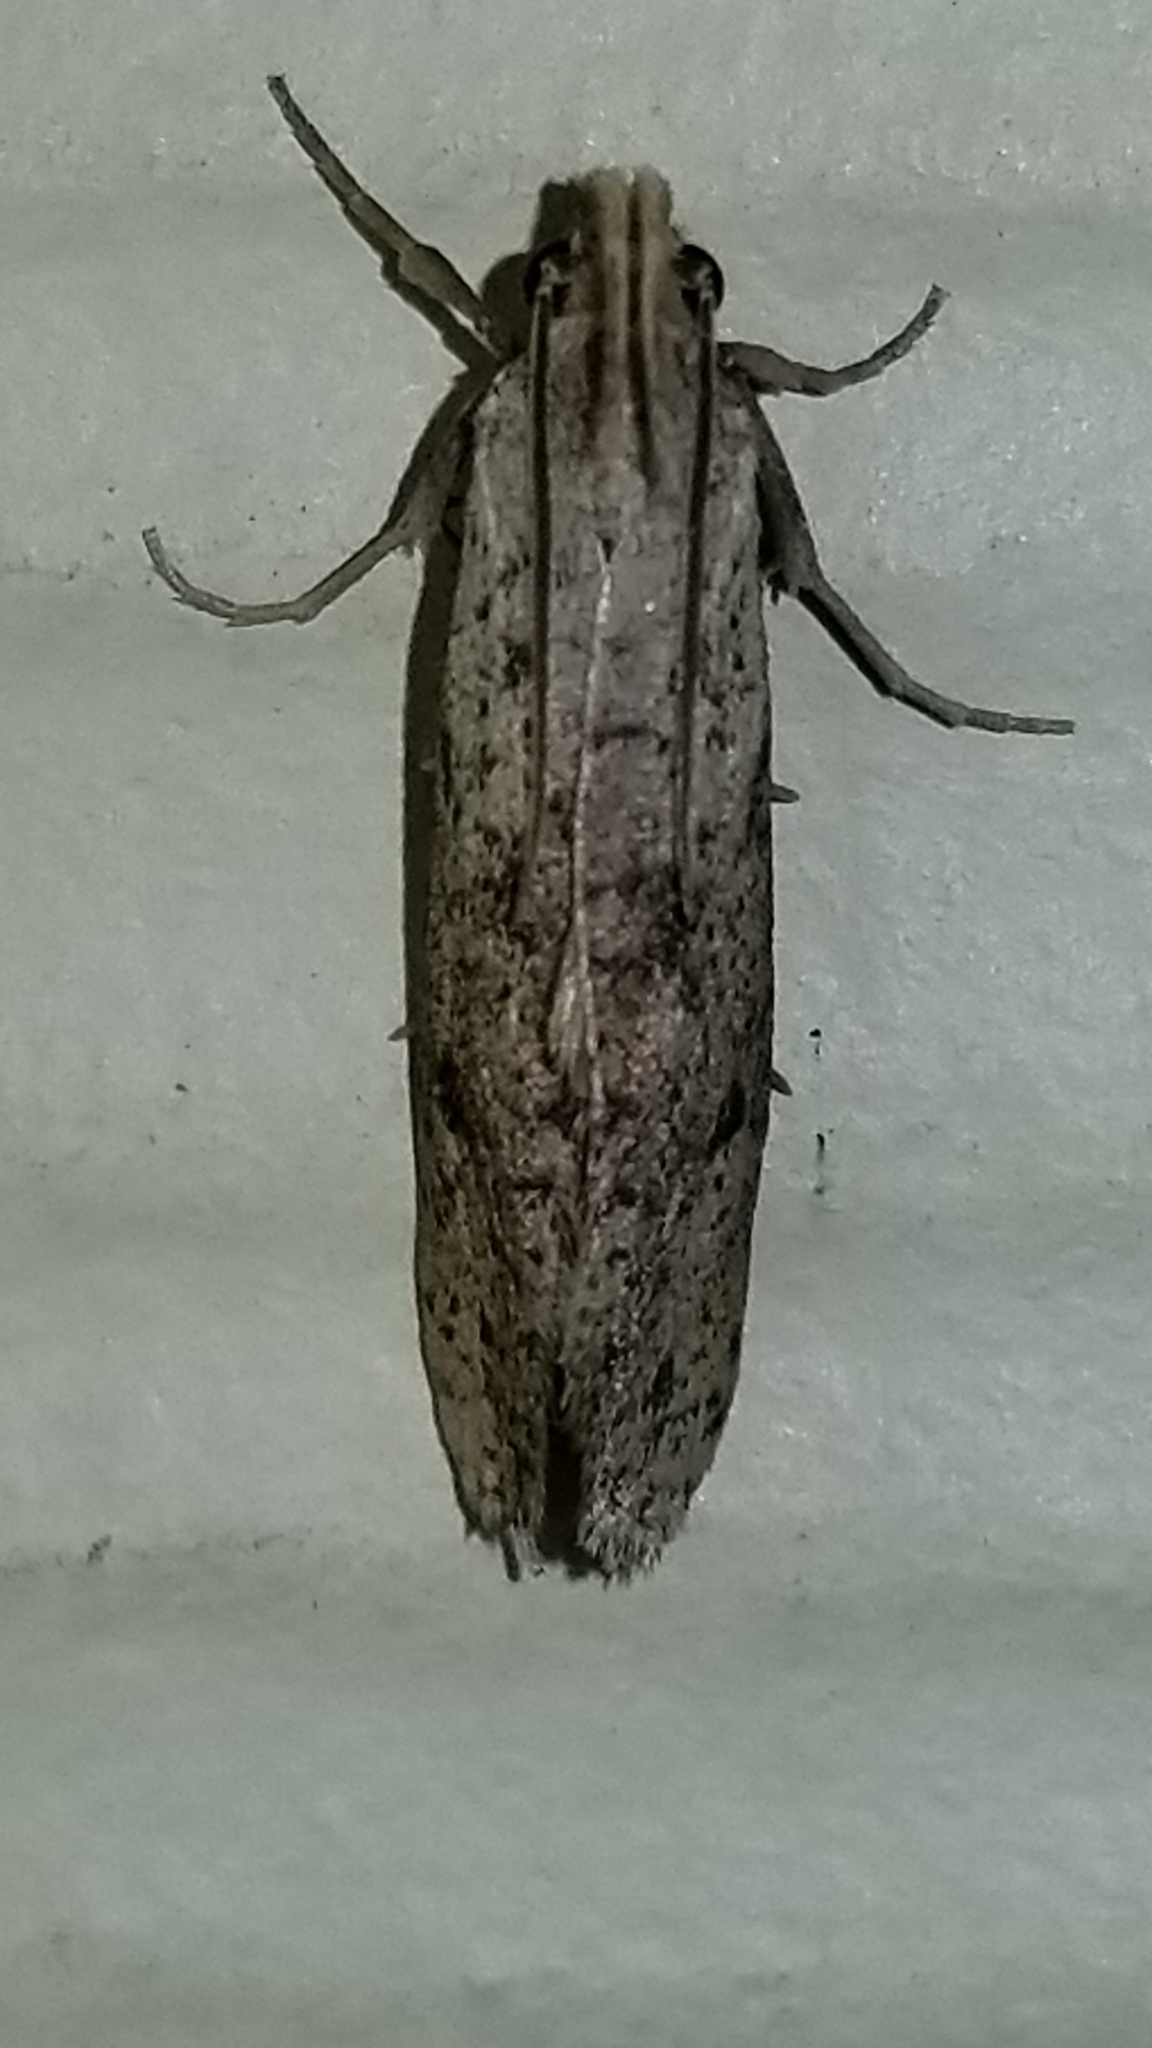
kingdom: Animalia
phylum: Arthropoda
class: Insecta
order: Lepidoptera
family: Tineidae
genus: Acrolophus
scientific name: Acrolophus mortipennella
